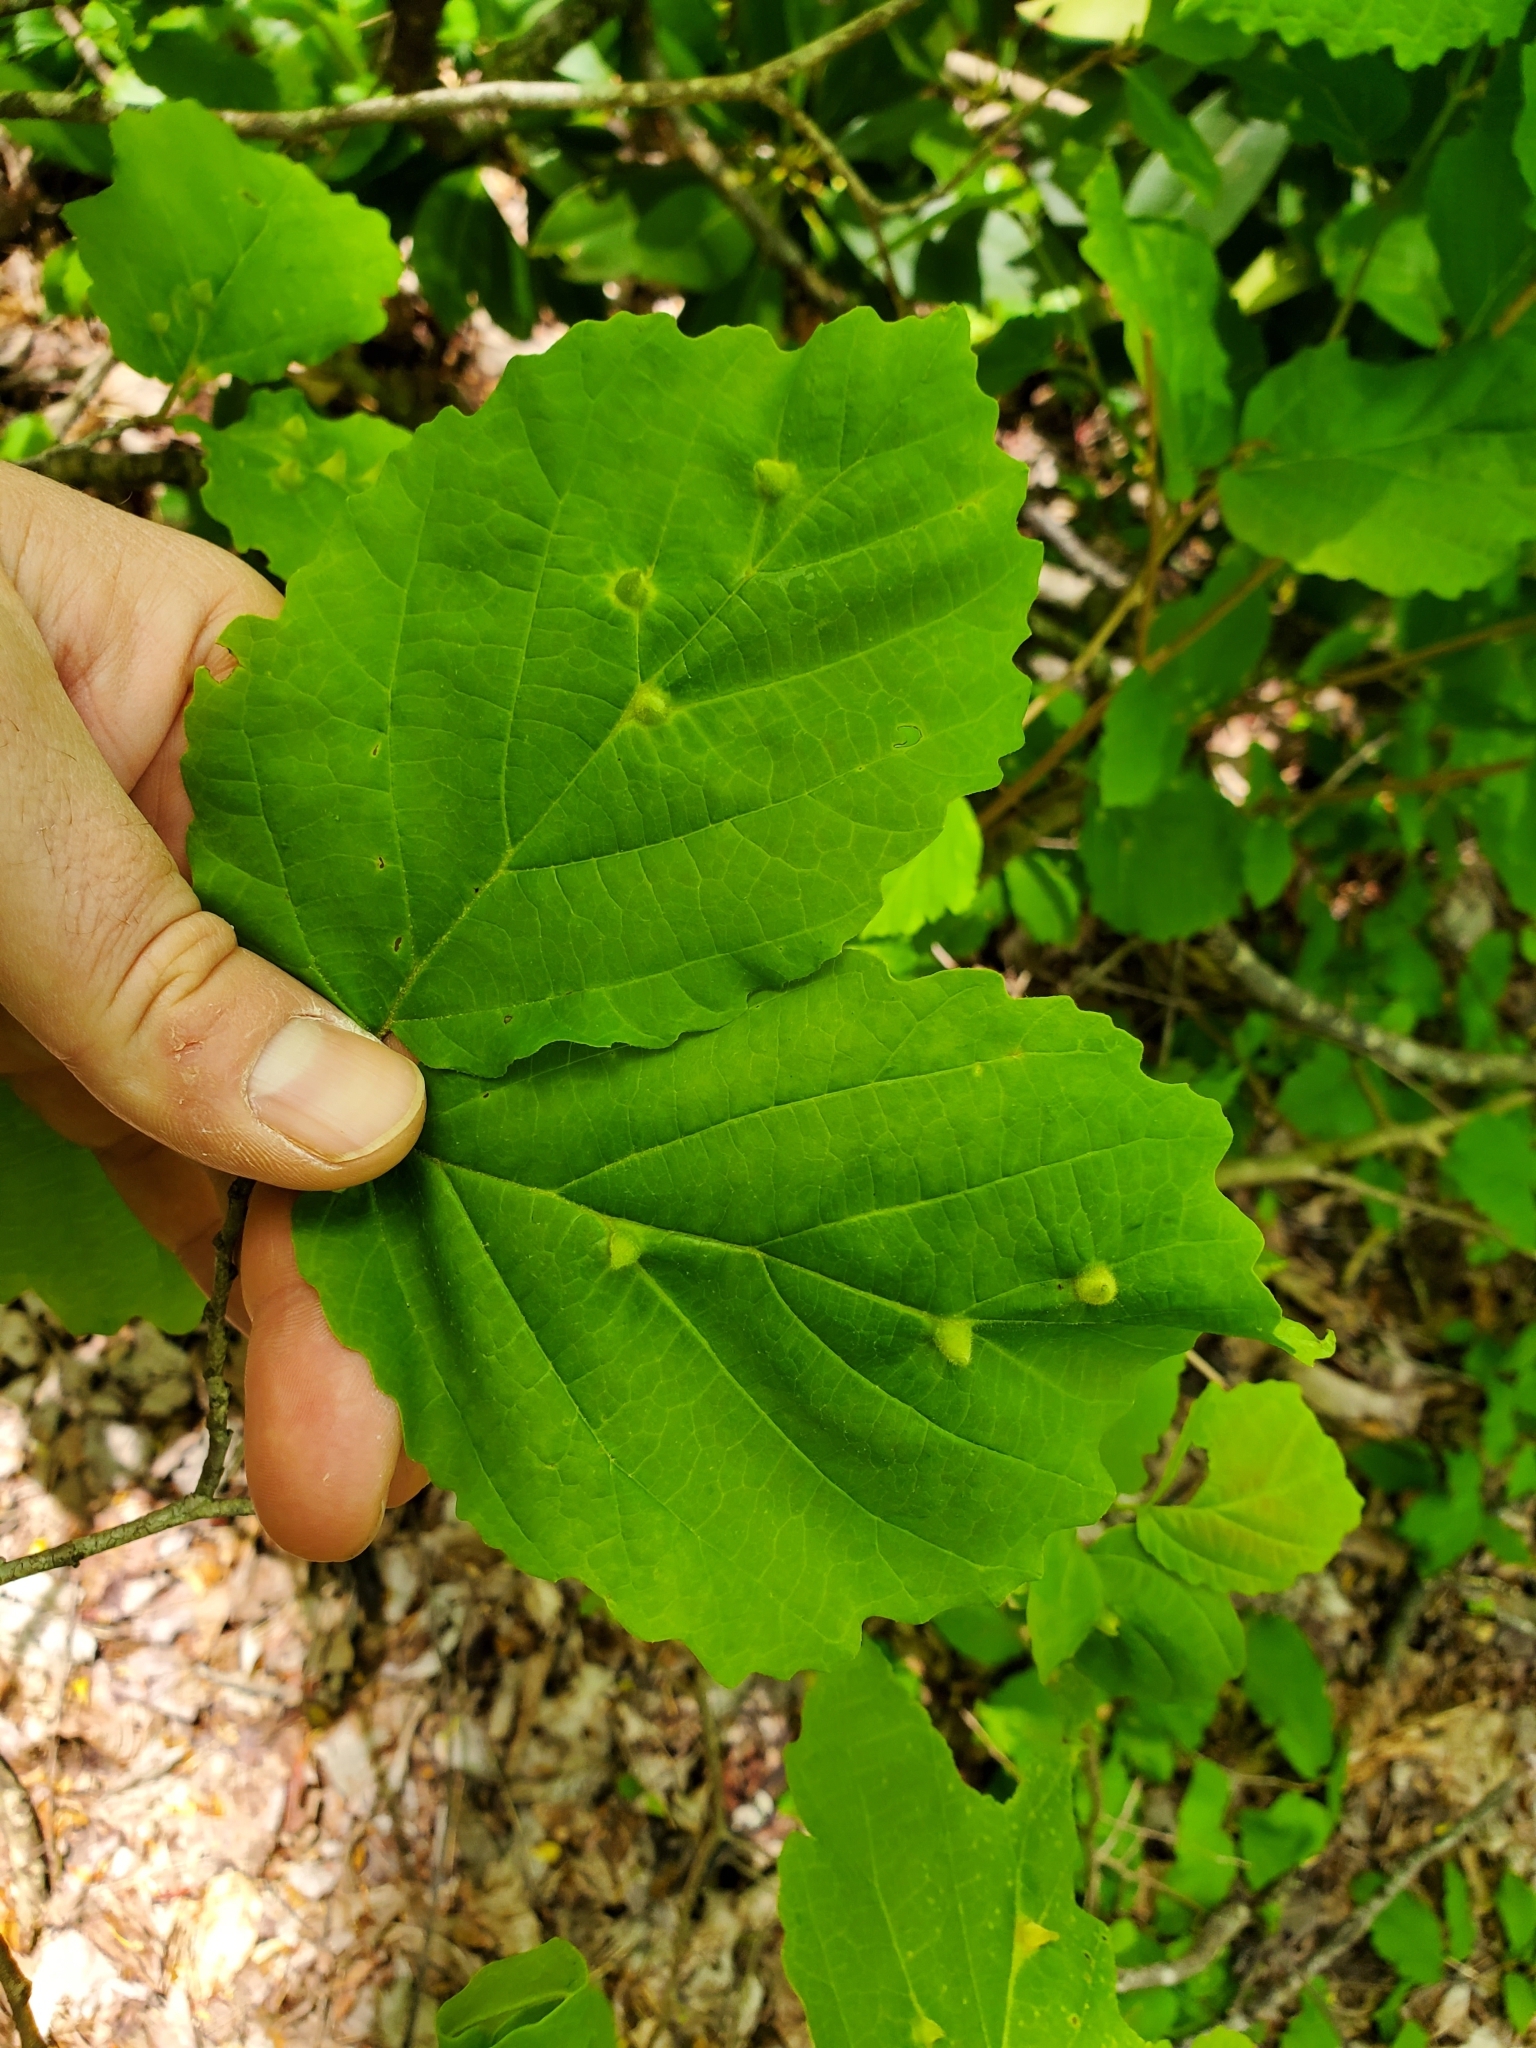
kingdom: Animalia
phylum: Arthropoda
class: Insecta
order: Hemiptera
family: Aphididae
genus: Hormaphis
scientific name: Hormaphis hamamelidis
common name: Witch-hazel cone gall aphid
